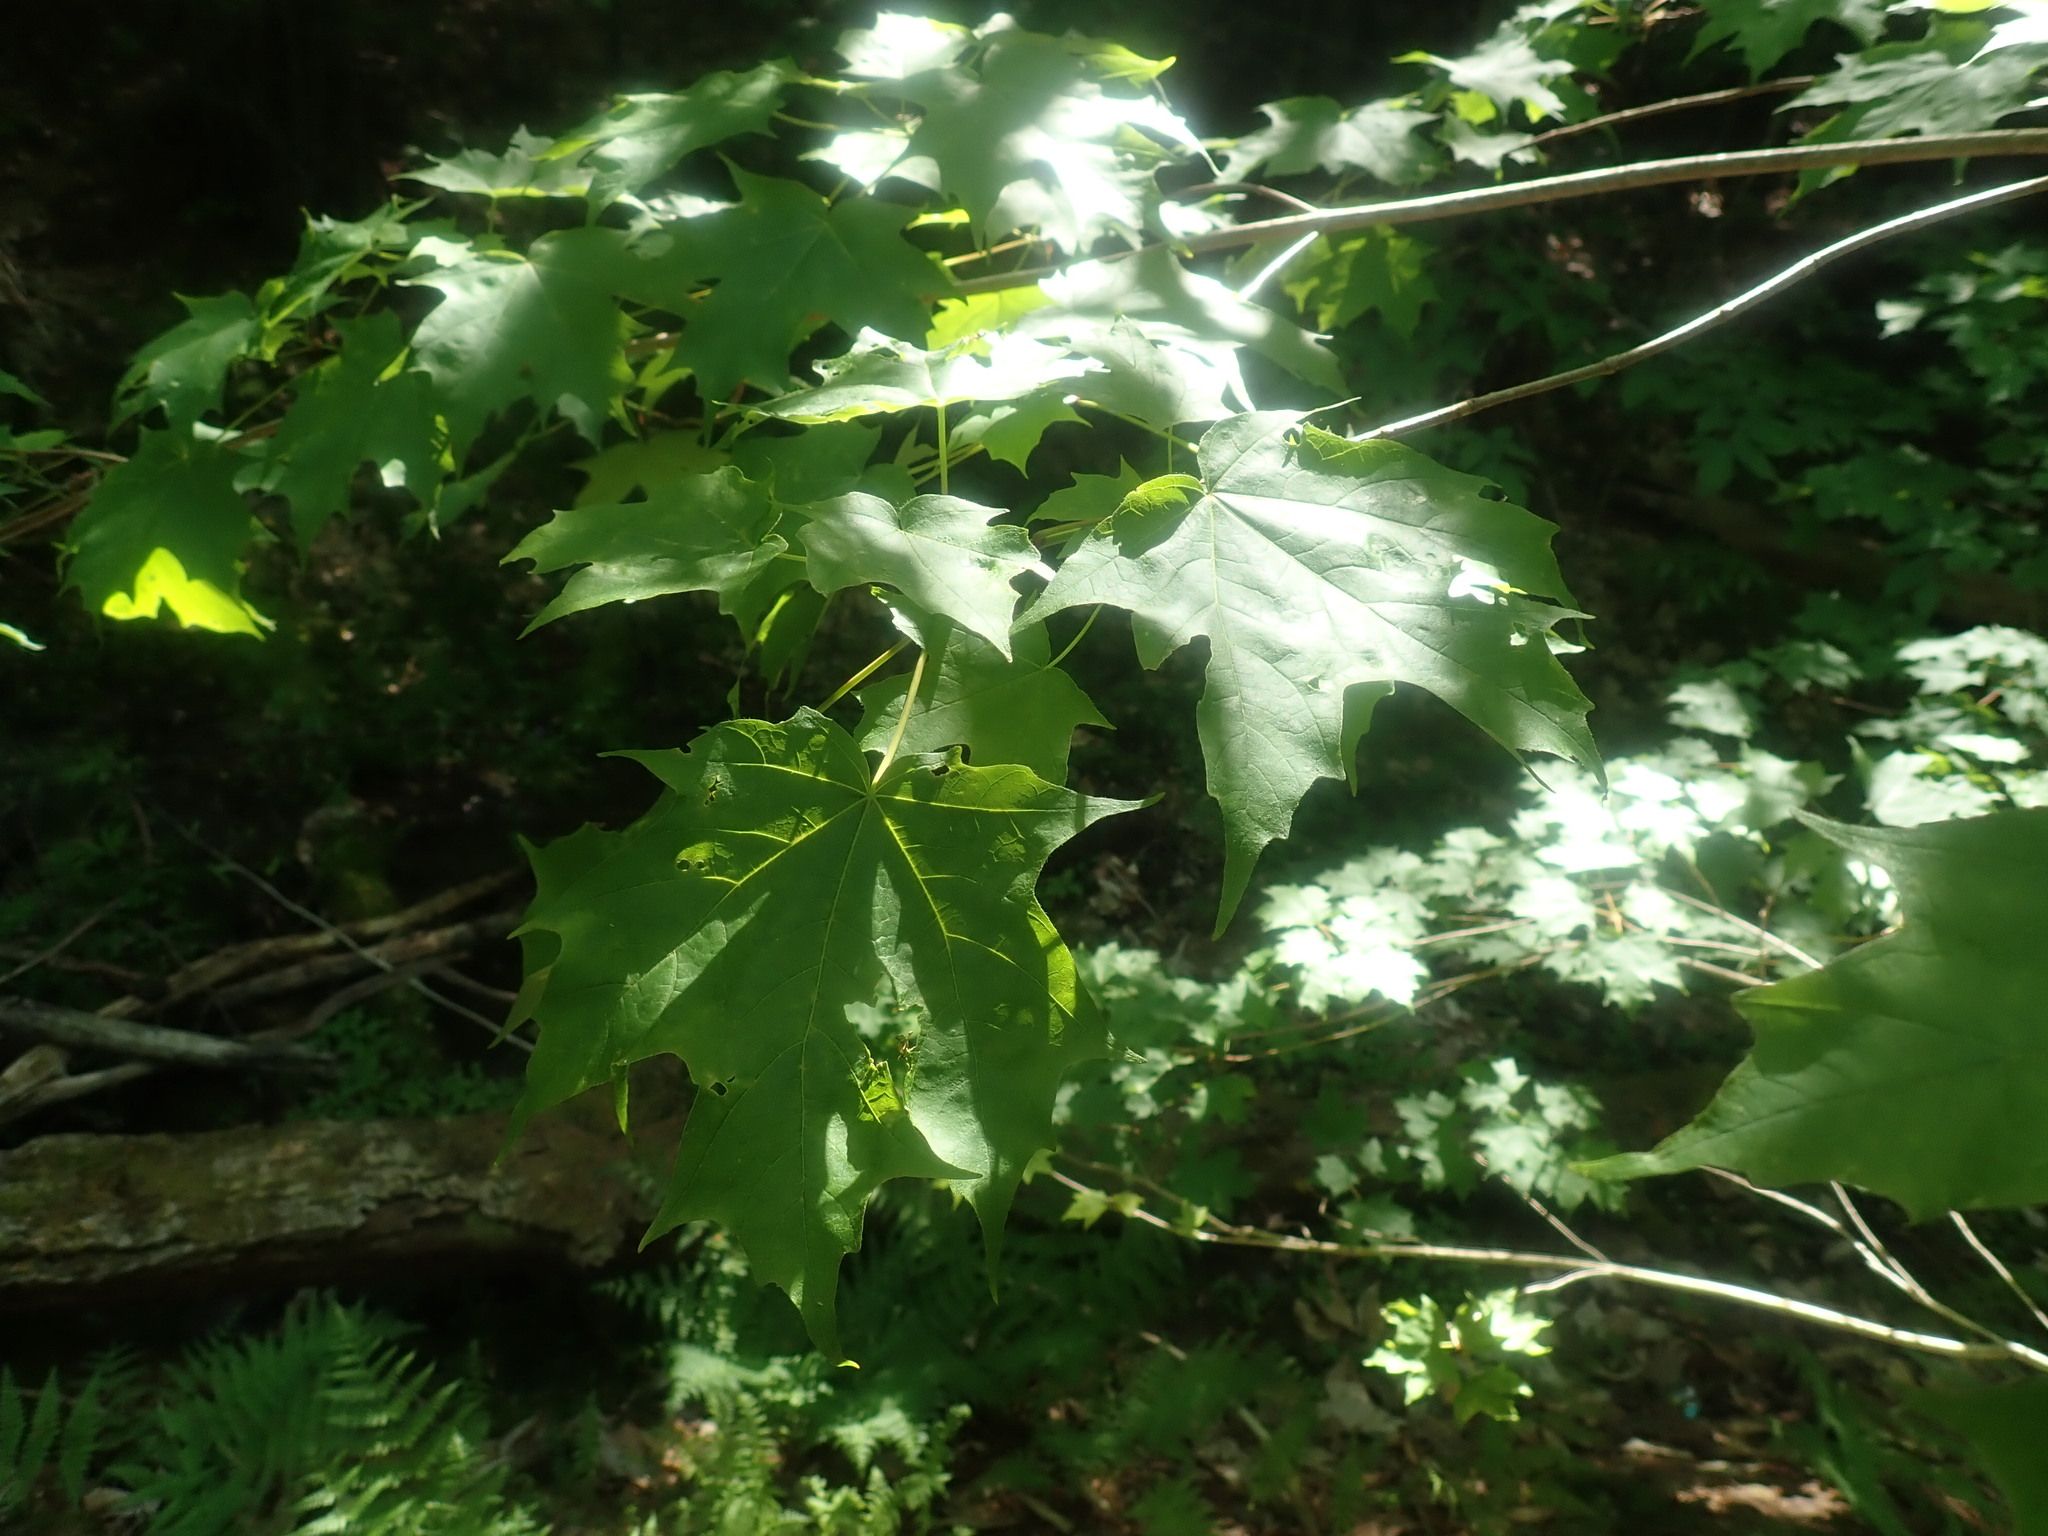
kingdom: Plantae
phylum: Tracheophyta
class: Magnoliopsida
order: Sapindales
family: Sapindaceae
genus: Acer
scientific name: Acer saccharum
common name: Sugar maple
